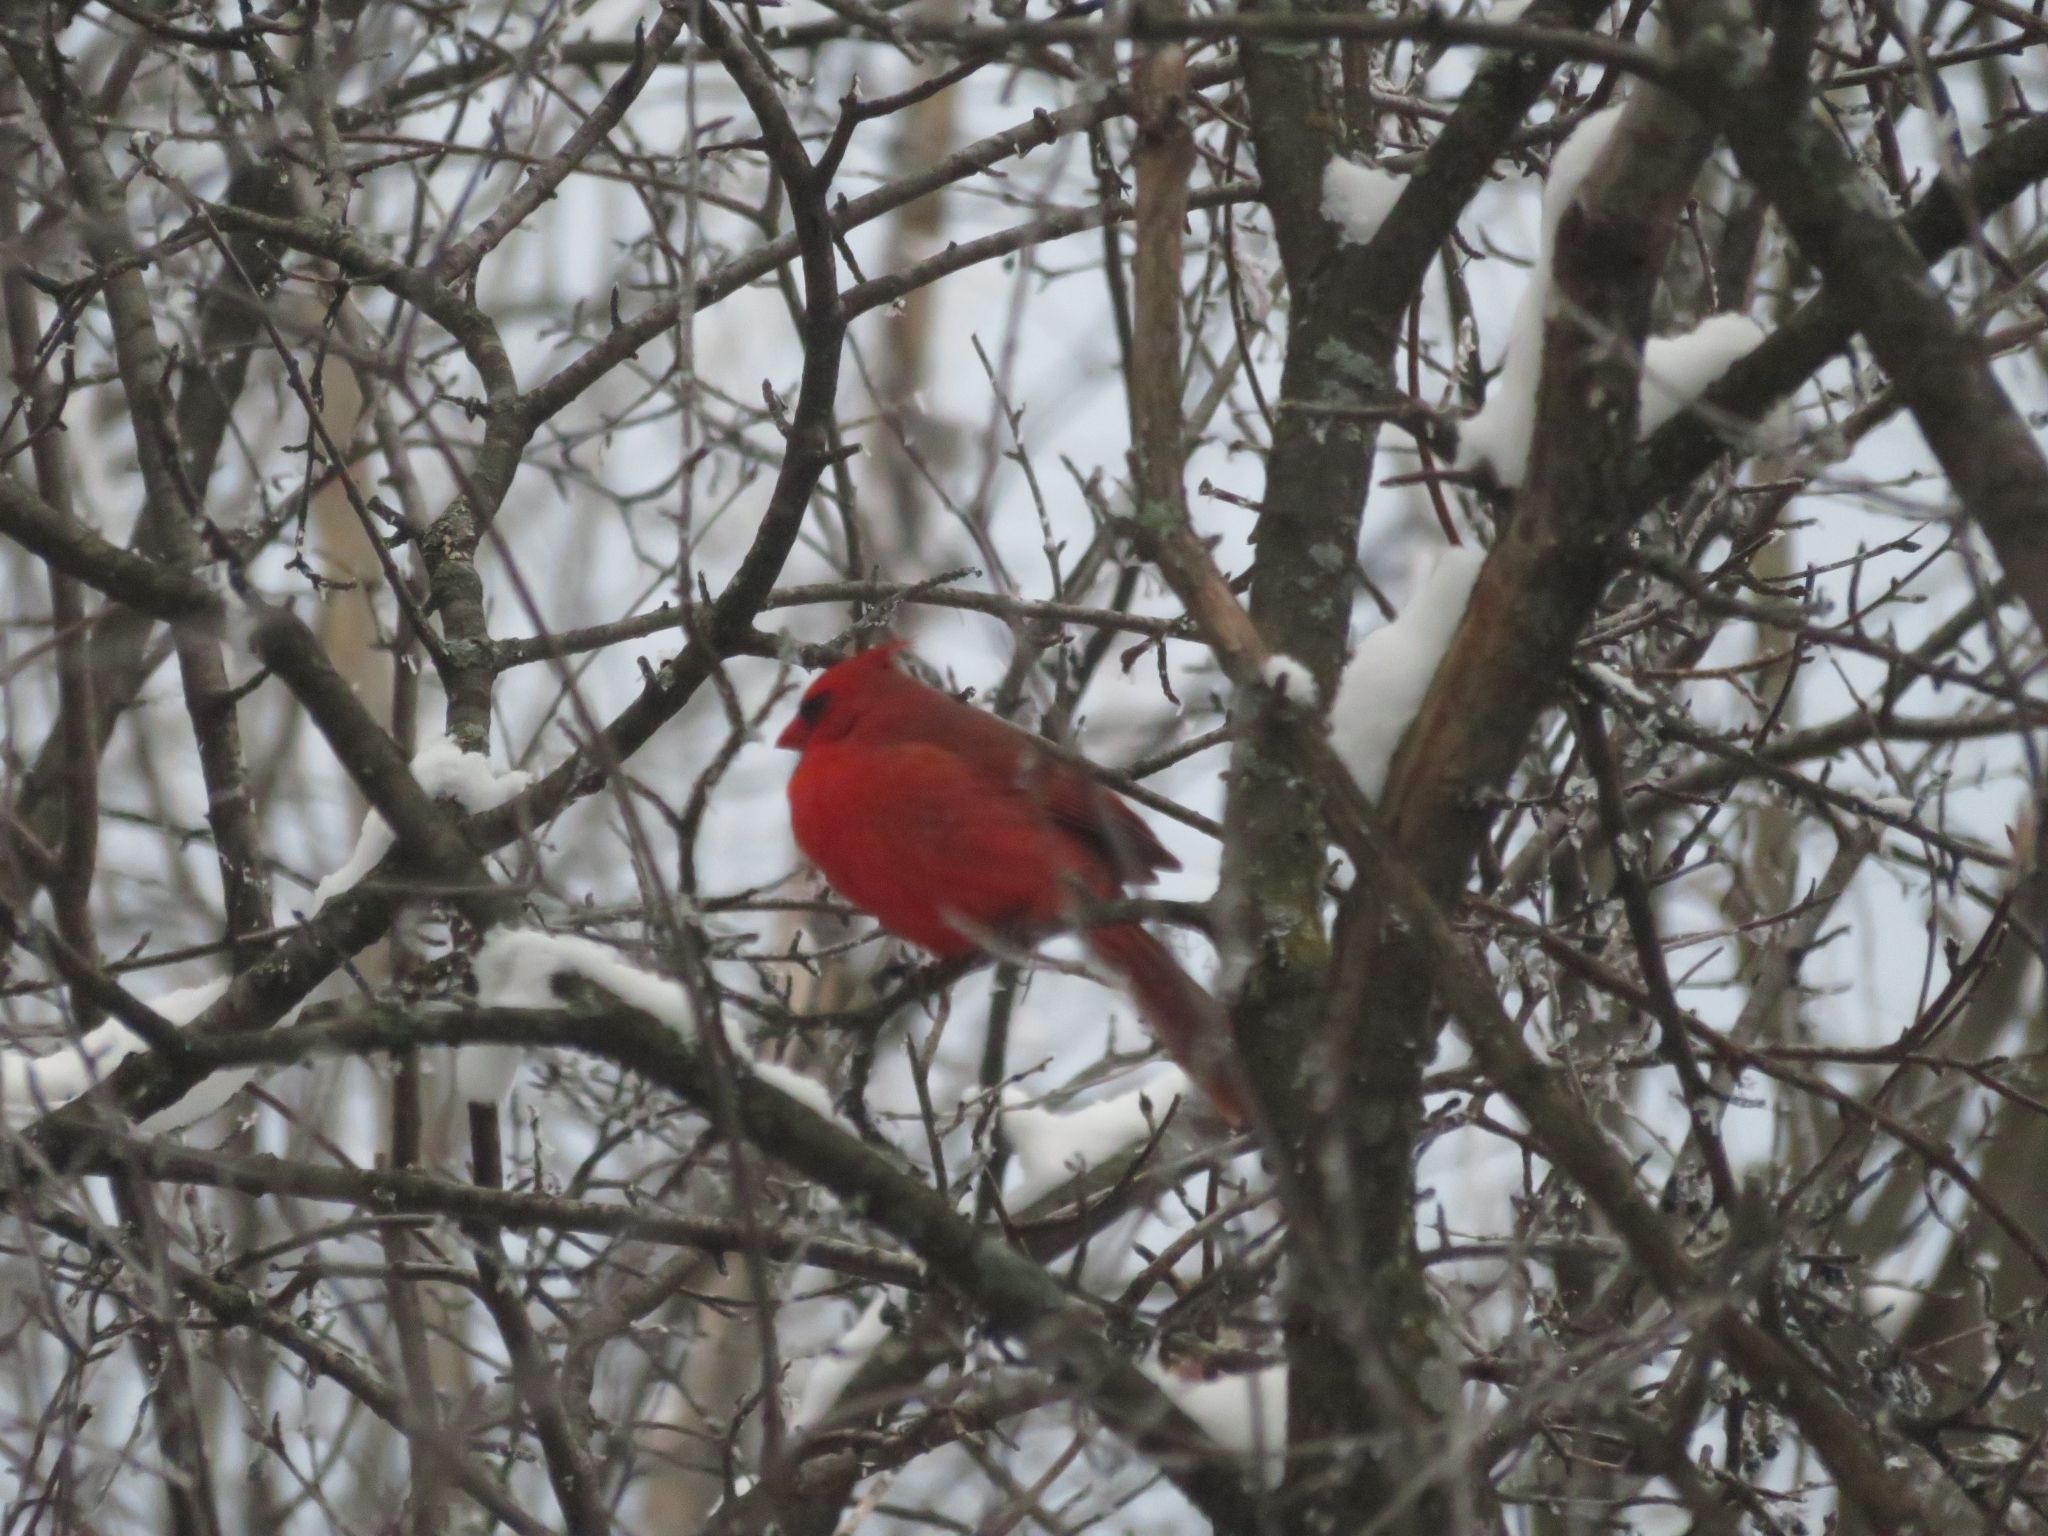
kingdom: Animalia
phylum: Chordata
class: Aves
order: Passeriformes
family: Cardinalidae
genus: Cardinalis
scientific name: Cardinalis cardinalis
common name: Northern cardinal
